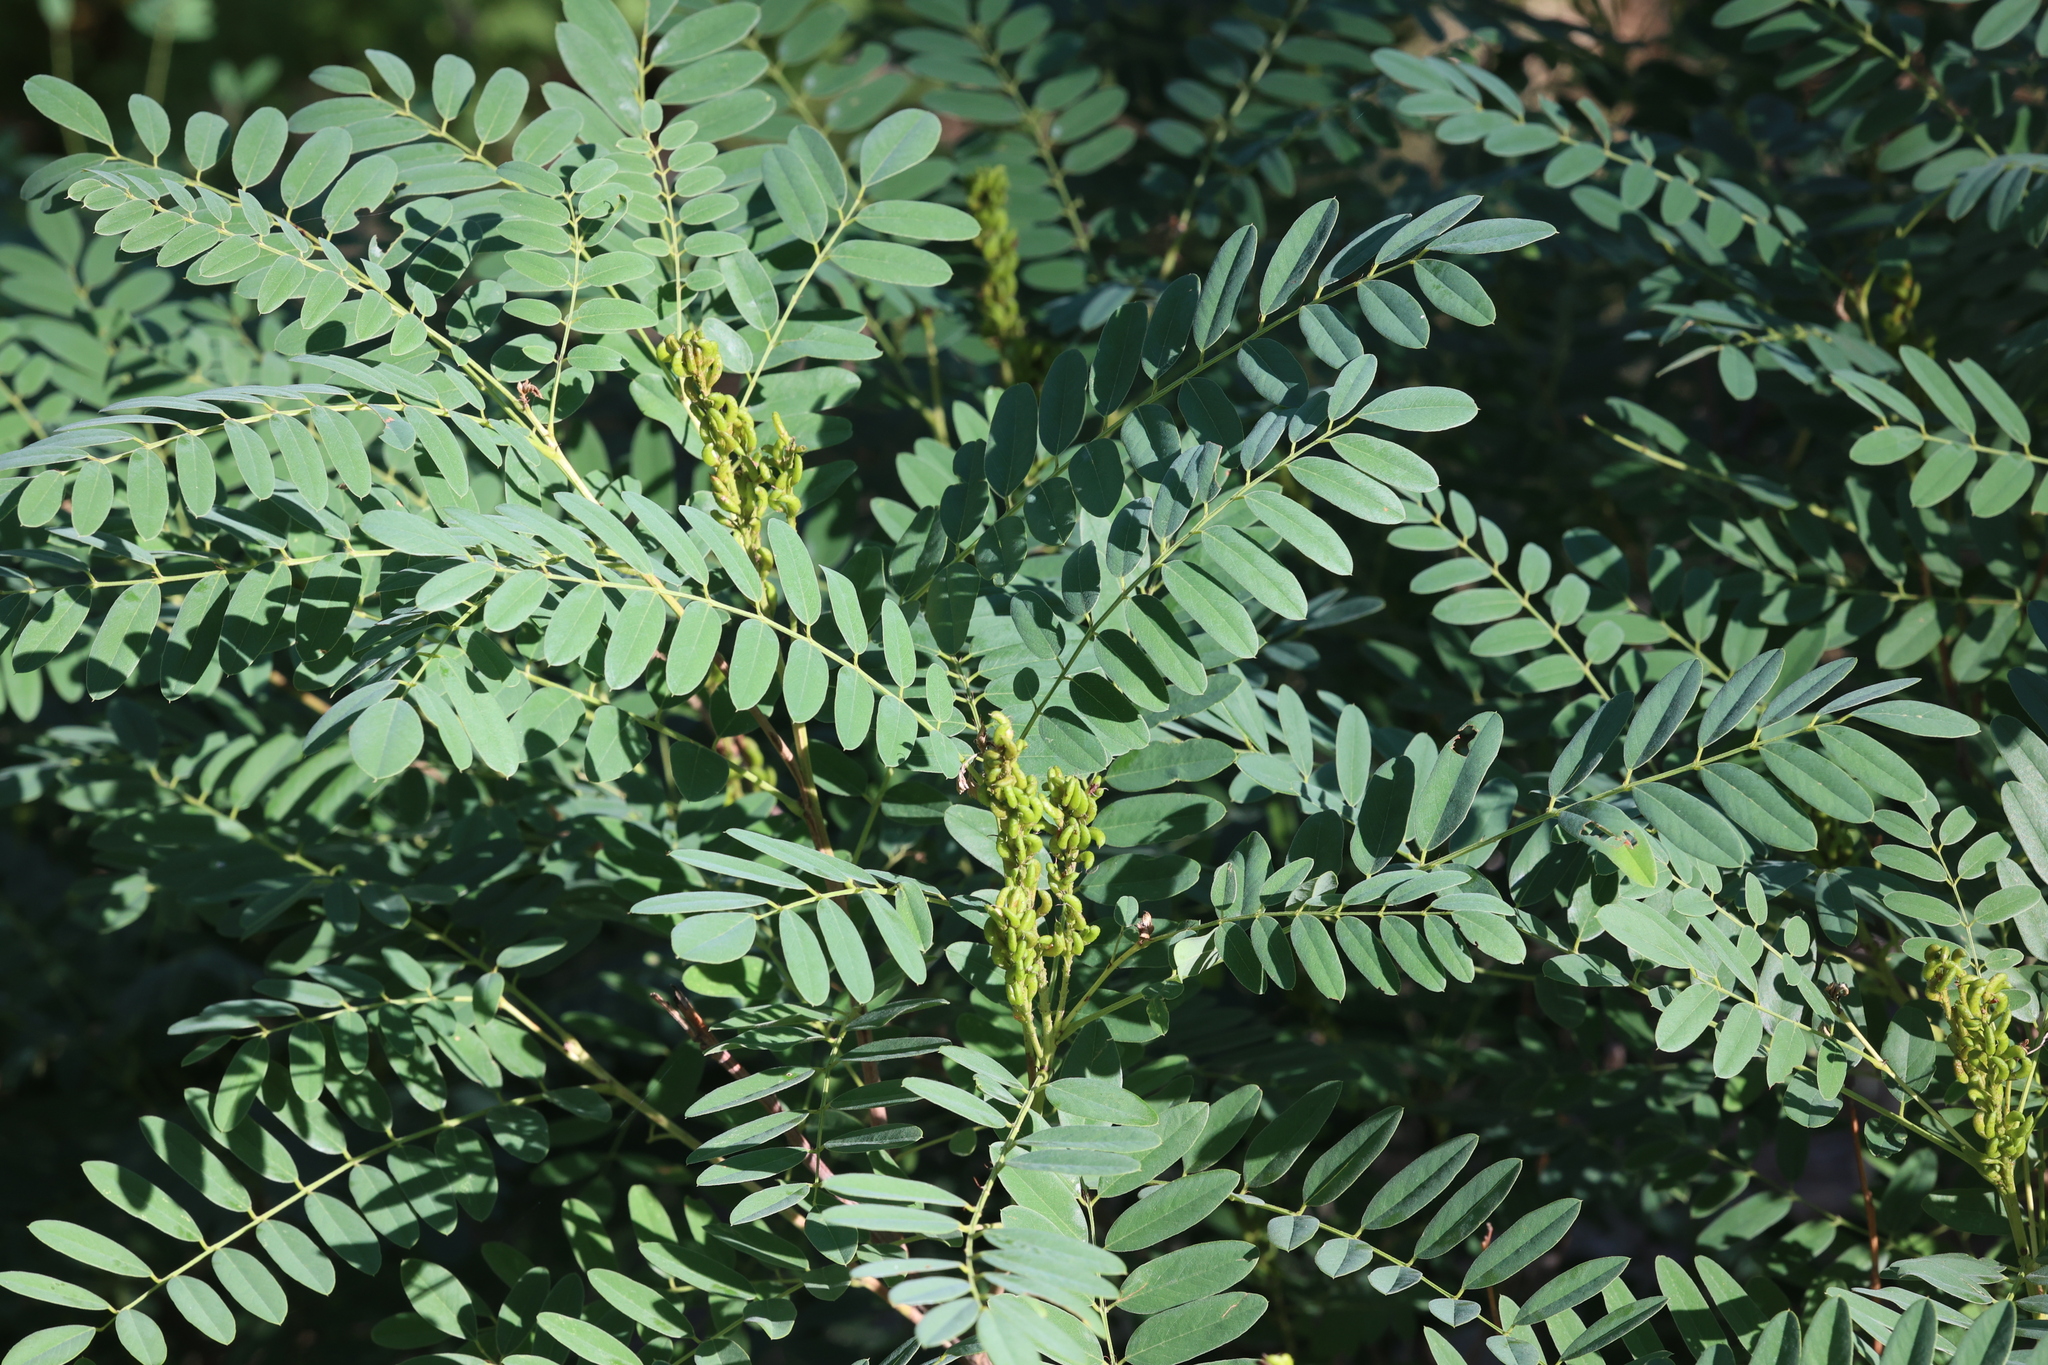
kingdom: Plantae
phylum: Tracheophyta
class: Magnoliopsida
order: Fabales
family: Fabaceae
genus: Amorpha
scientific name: Amorpha fruticosa
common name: False indigo
